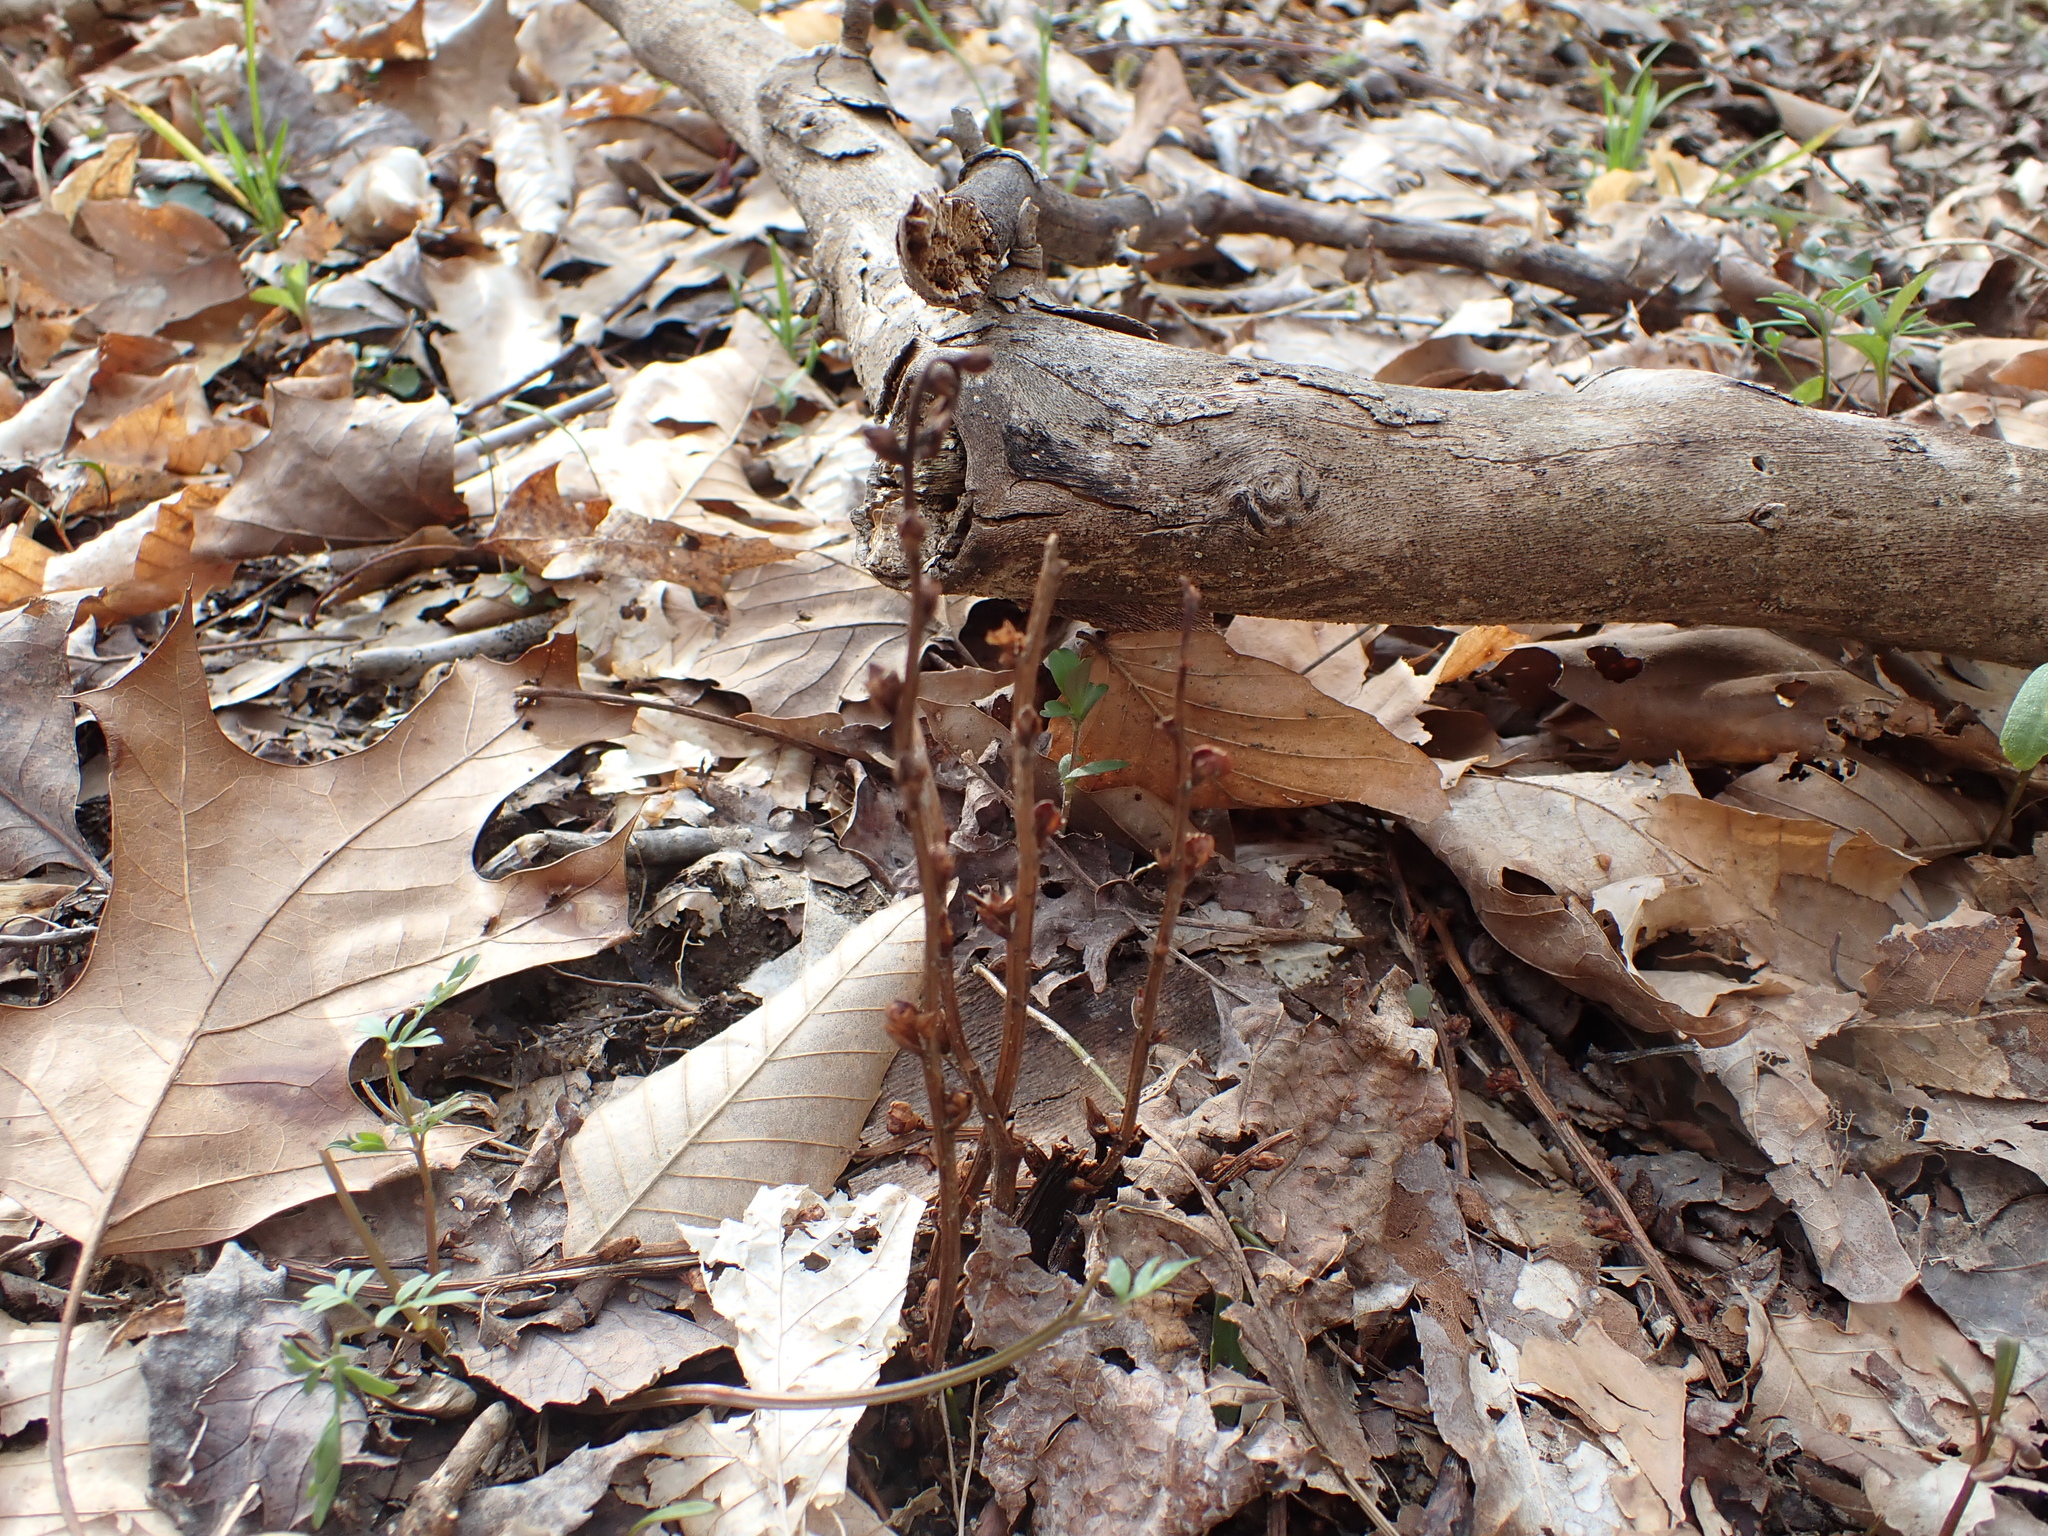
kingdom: Plantae
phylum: Tracheophyta
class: Magnoliopsida
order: Lamiales
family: Orobanchaceae
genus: Epifagus
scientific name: Epifagus virginiana
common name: Beechdrops
